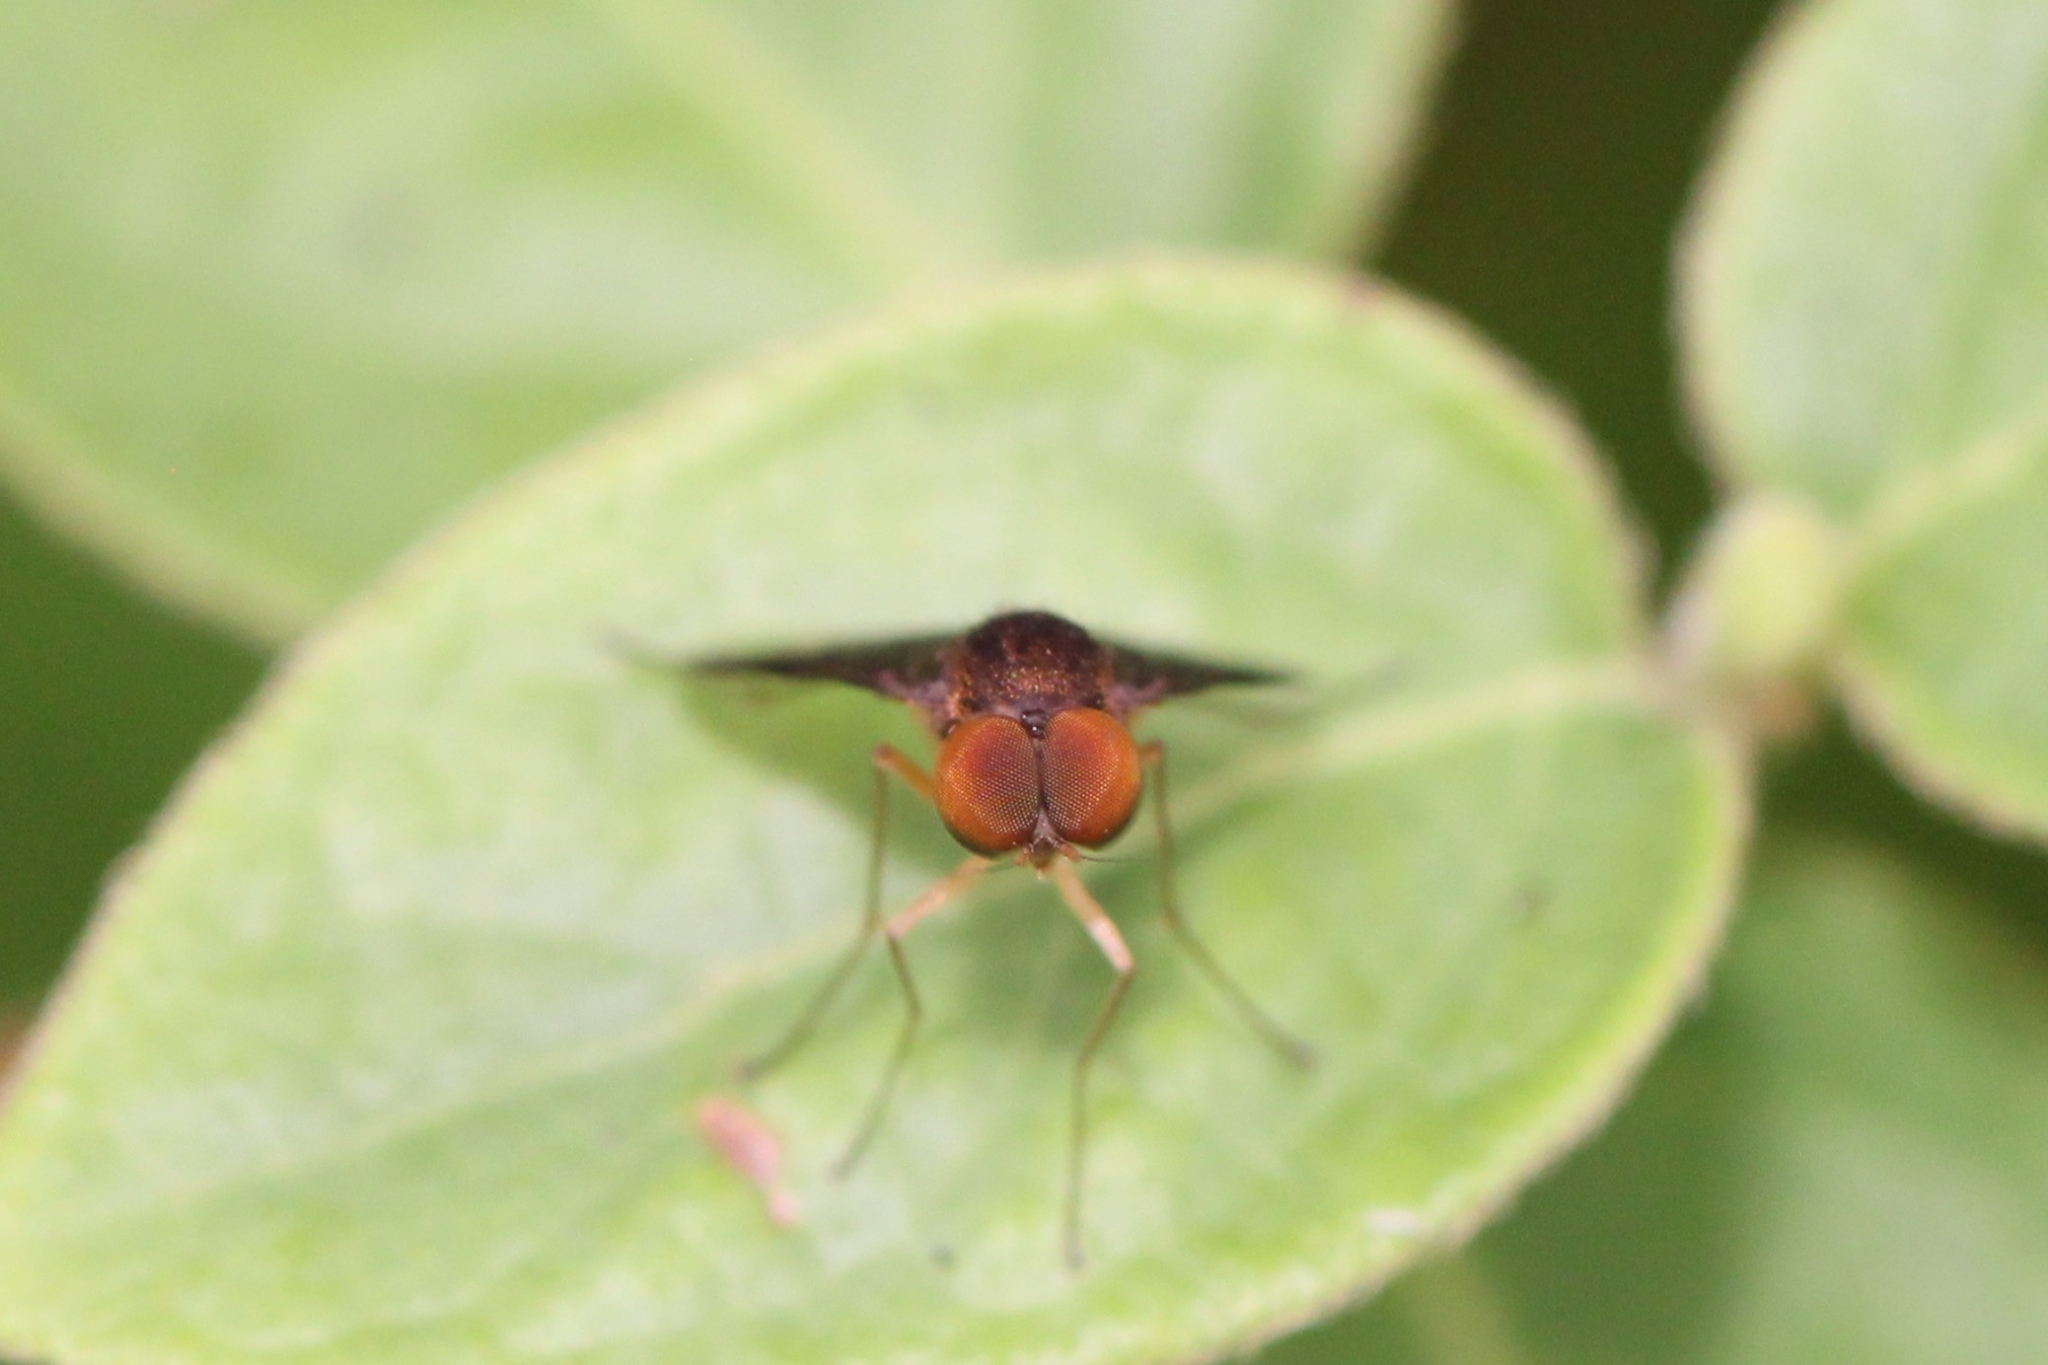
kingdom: Animalia
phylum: Arthropoda
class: Insecta
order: Diptera
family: Rhagionidae
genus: Chrysopilus
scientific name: Chrysopilus quadratus
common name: Quadrate snipe fly
